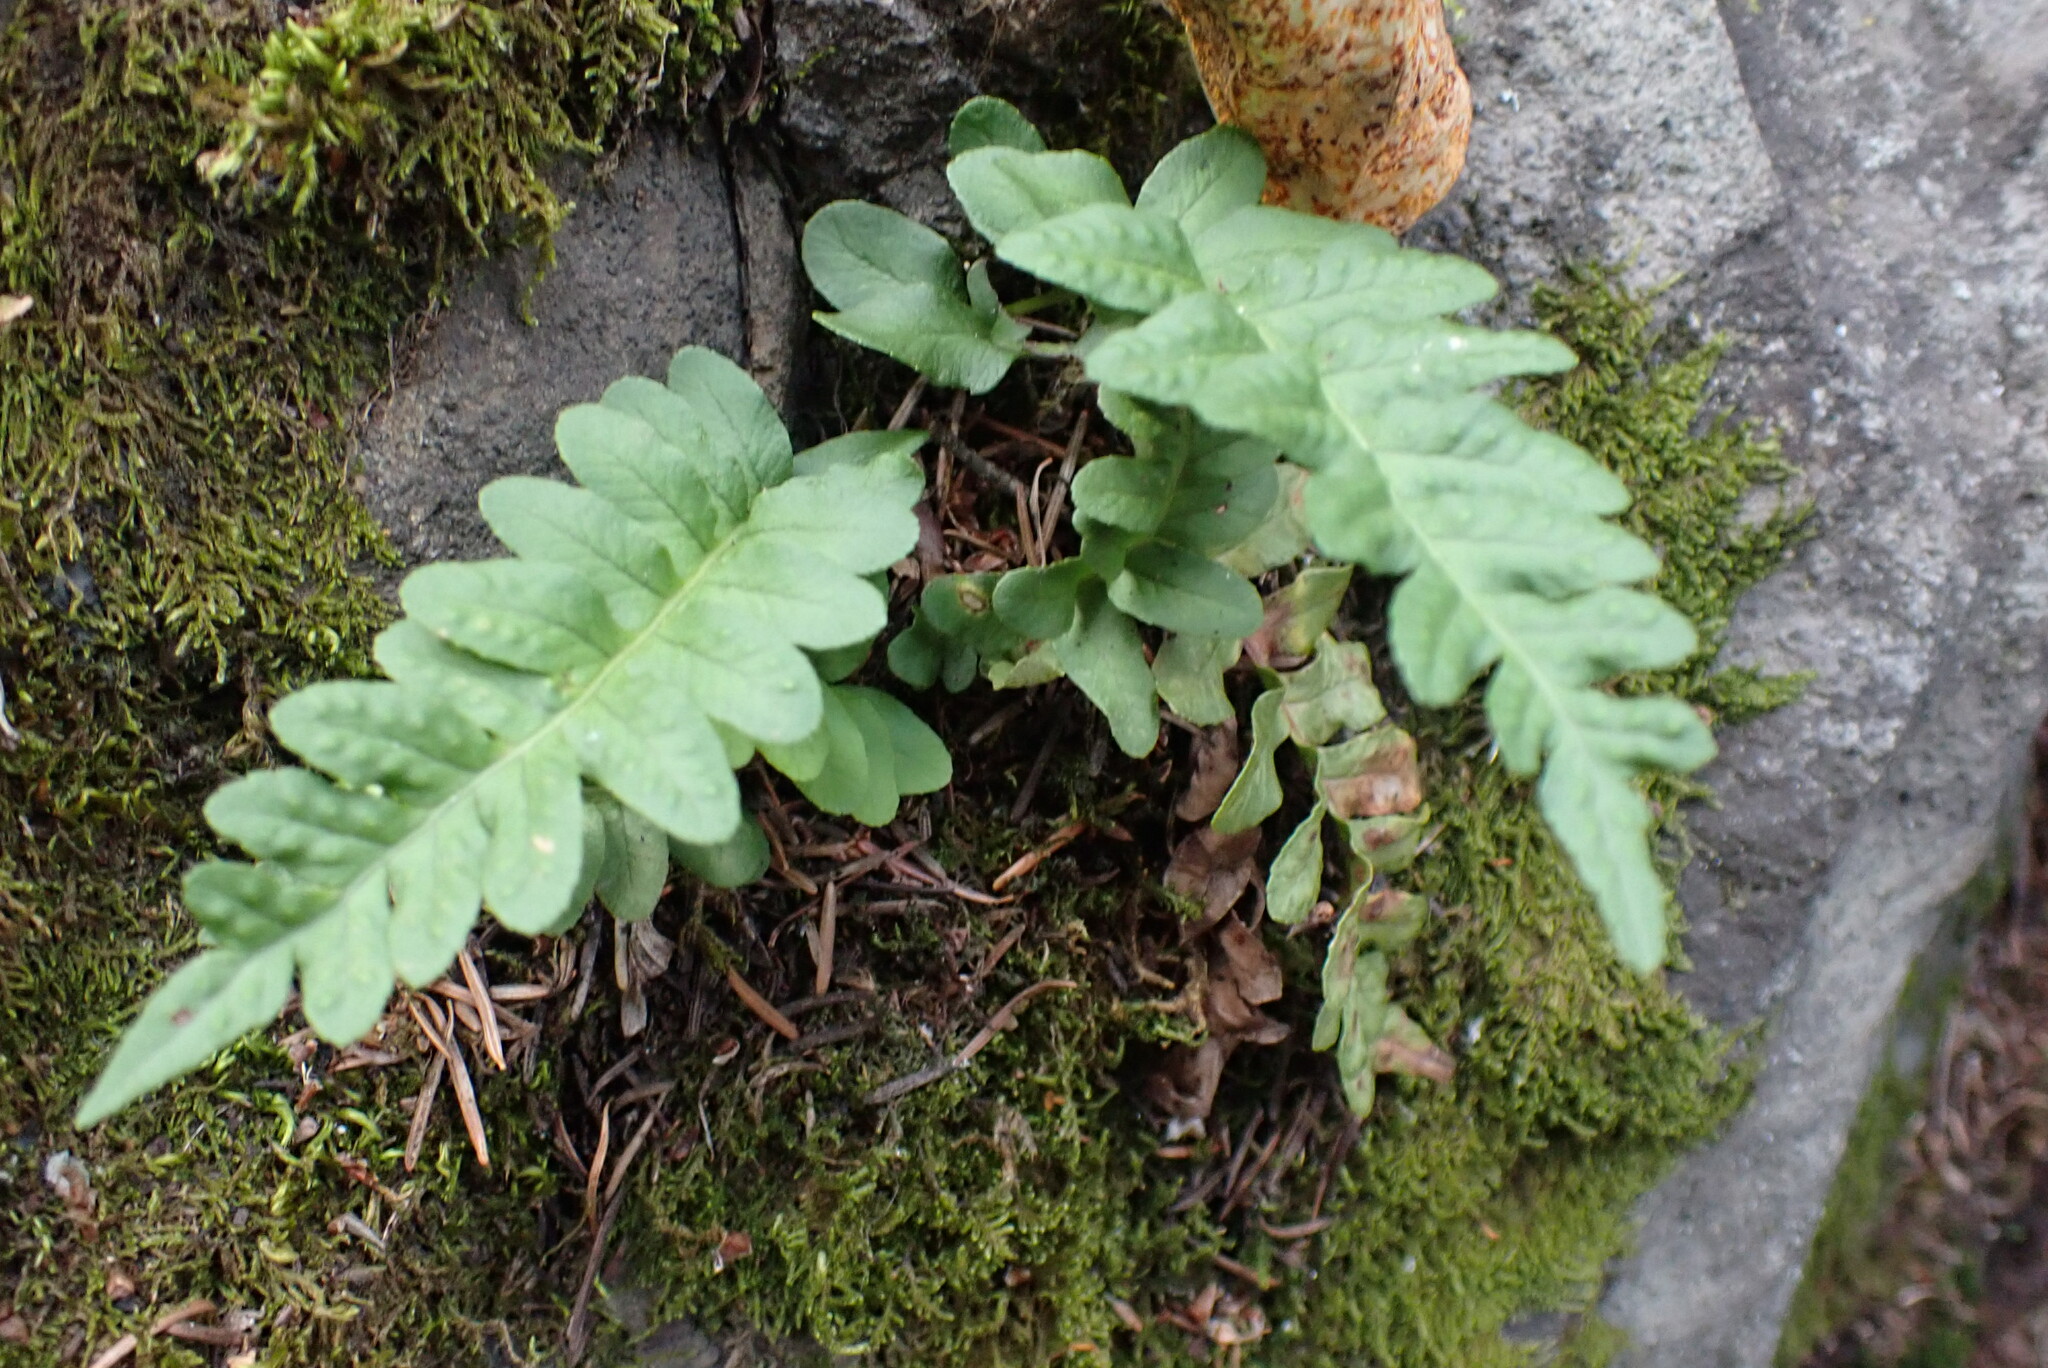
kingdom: Plantae
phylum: Tracheophyta
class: Polypodiopsida
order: Polypodiales
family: Polypodiaceae
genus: Polypodium
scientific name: Polypodium hesperium
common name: Western polypody
